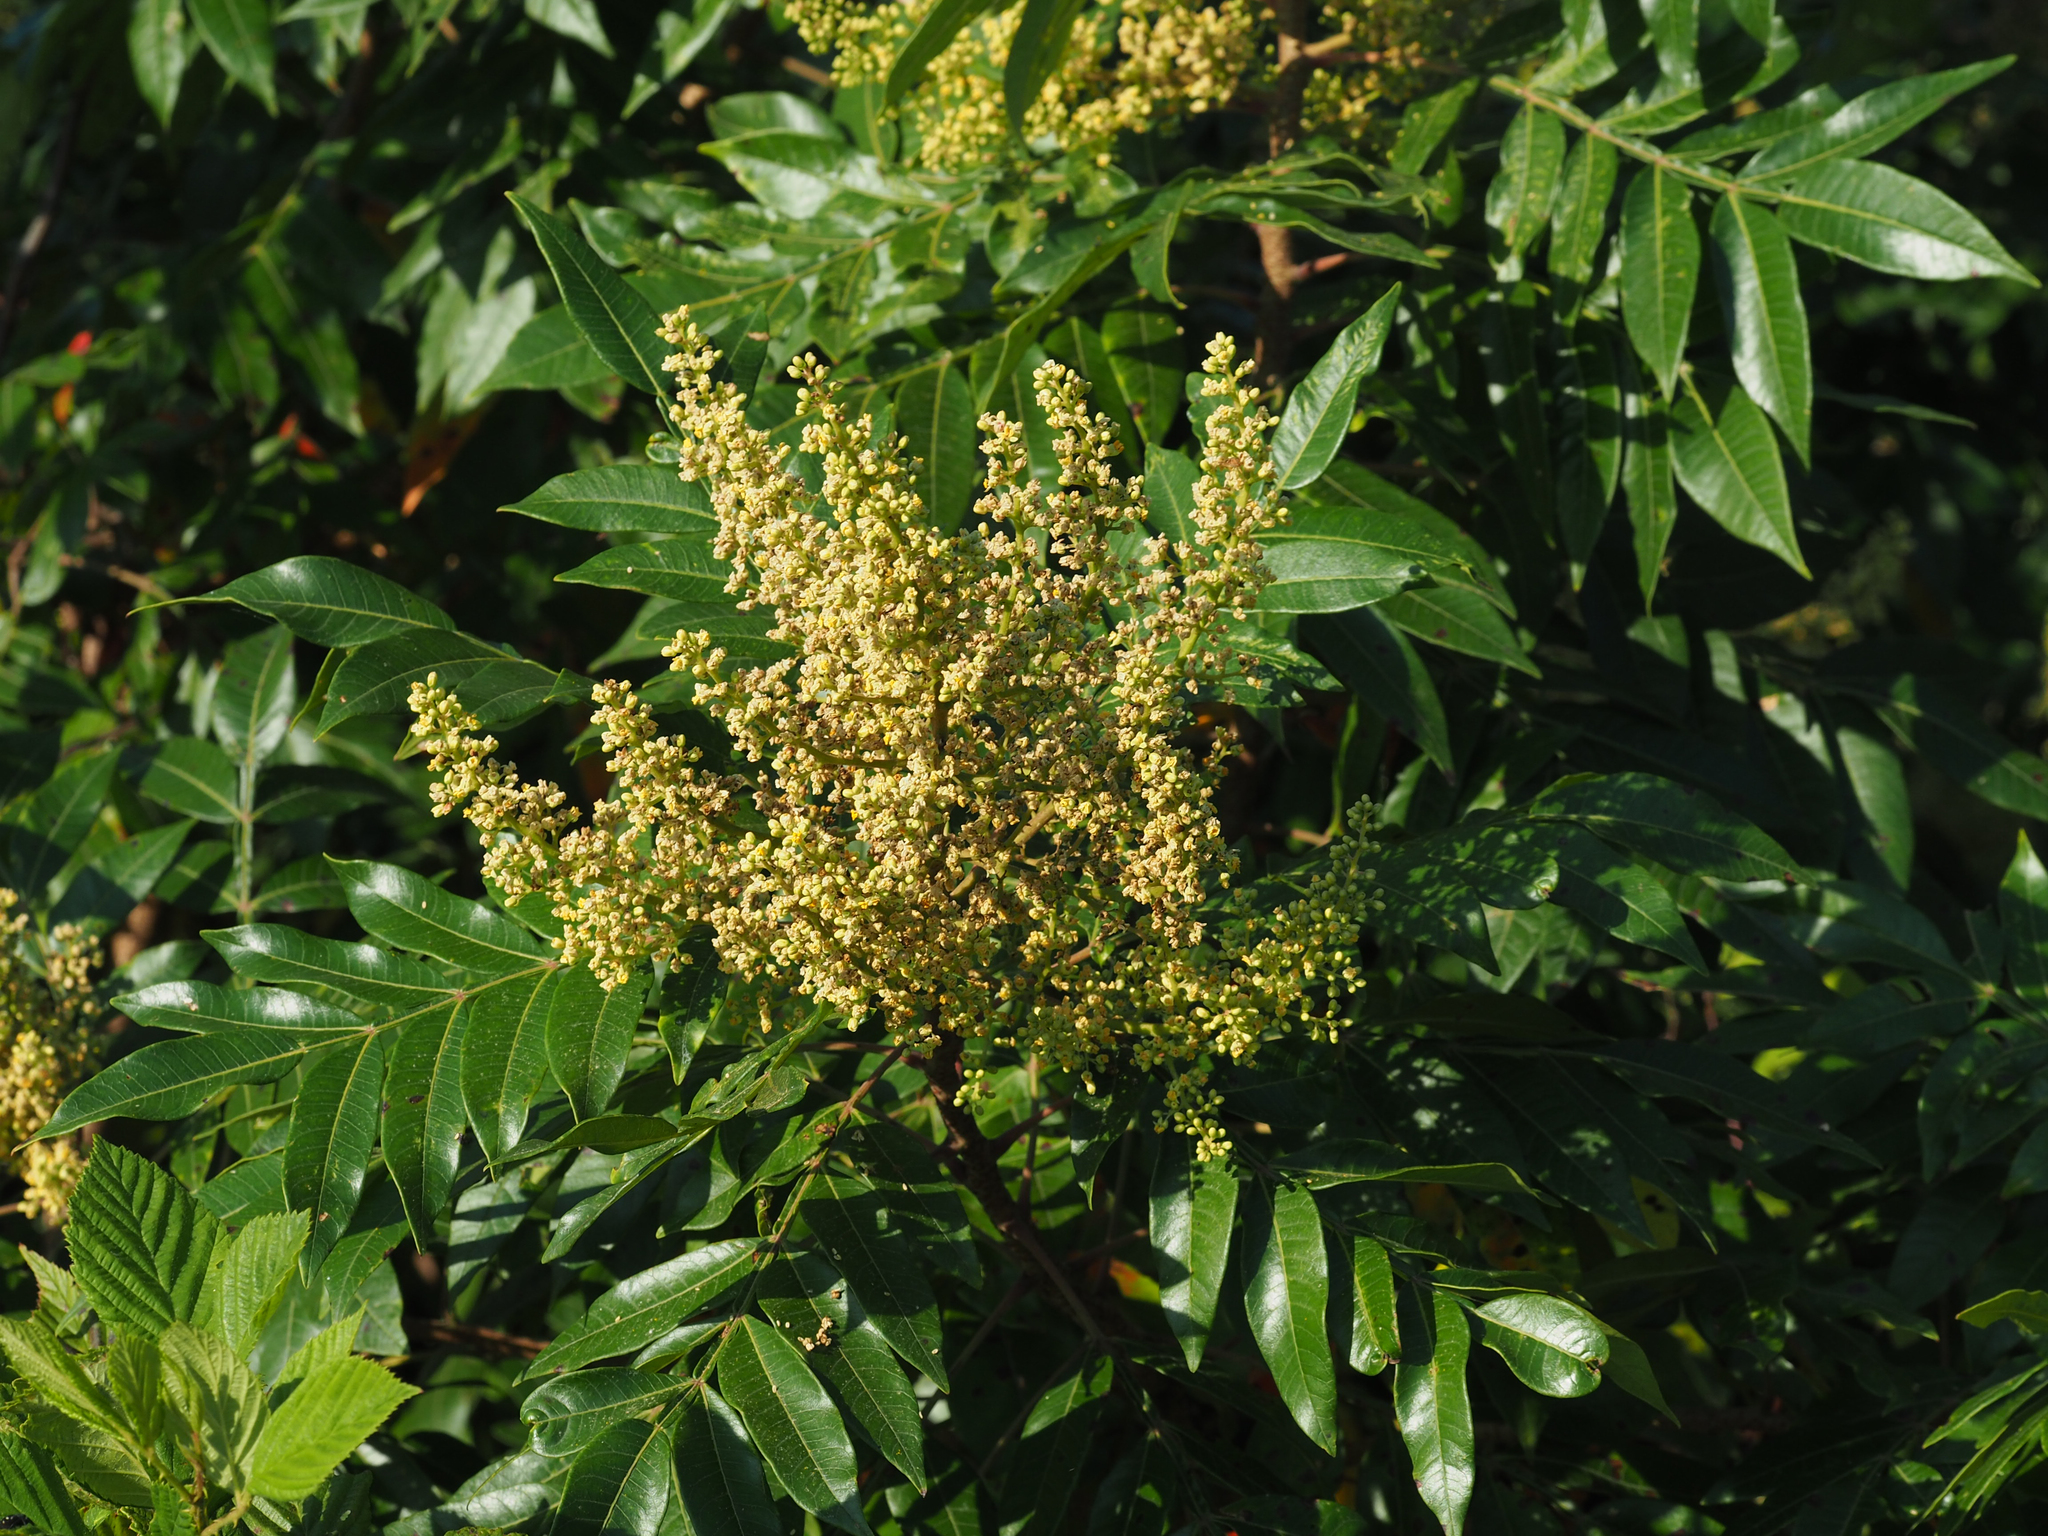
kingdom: Plantae
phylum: Tracheophyta
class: Magnoliopsida
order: Sapindales
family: Anacardiaceae
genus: Rhus
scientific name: Rhus copallina
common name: Shining sumac
